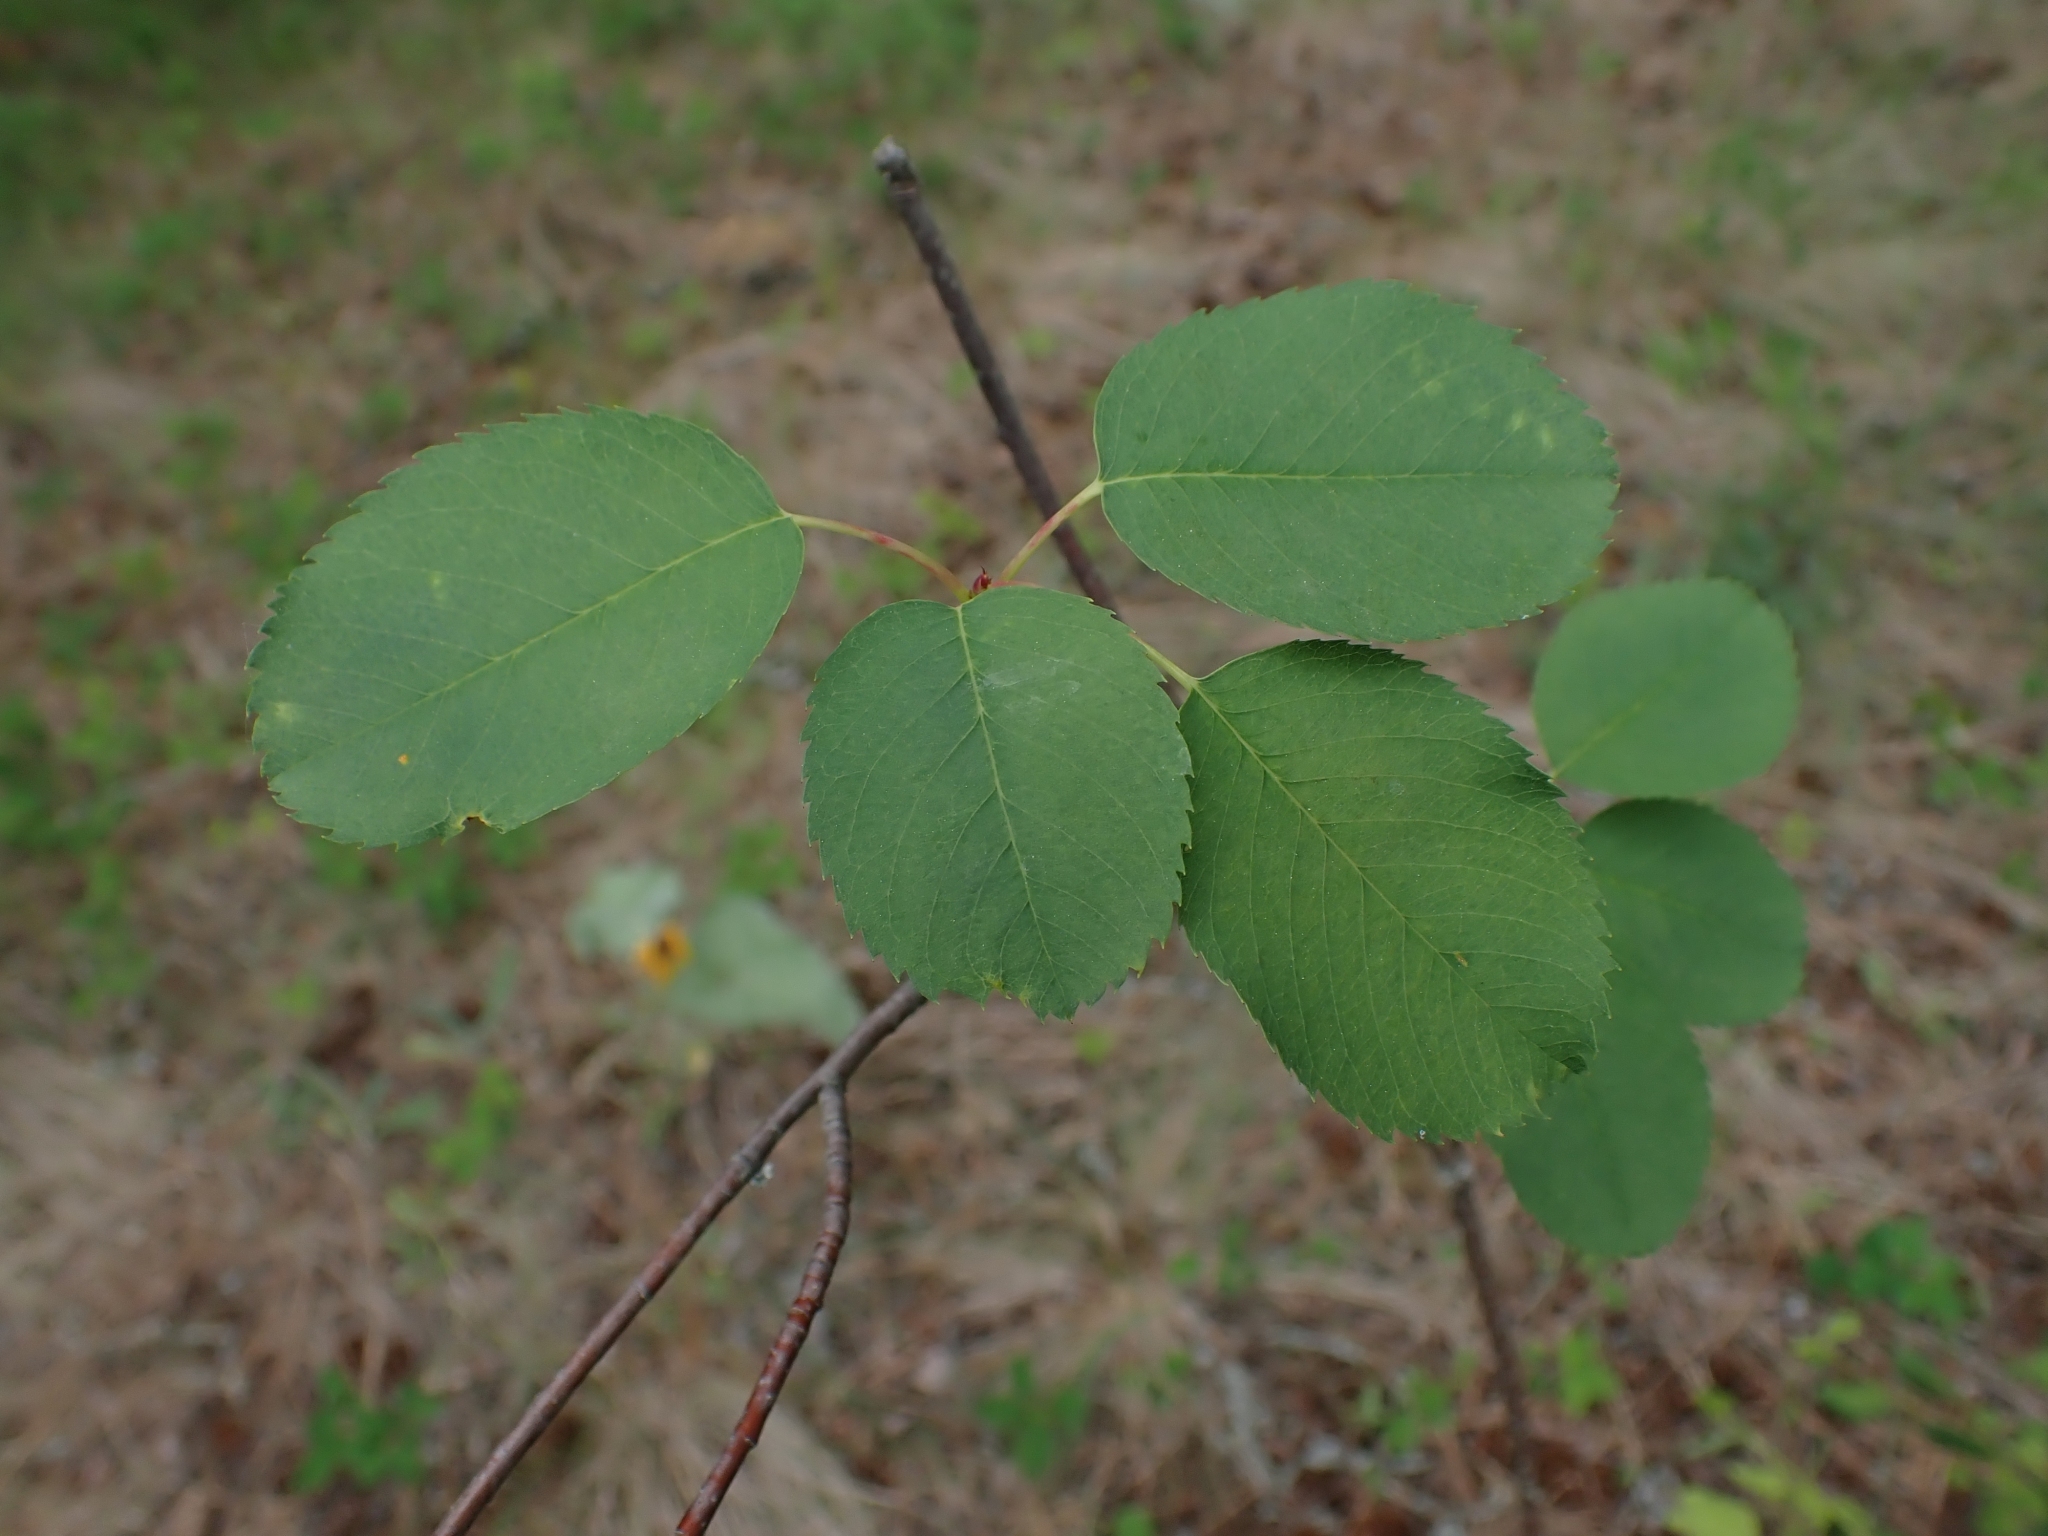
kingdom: Plantae
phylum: Tracheophyta
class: Magnoliopsida
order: Rosales
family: Rosaceae
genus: Amelanchier
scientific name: Amelanchier alnifolia
